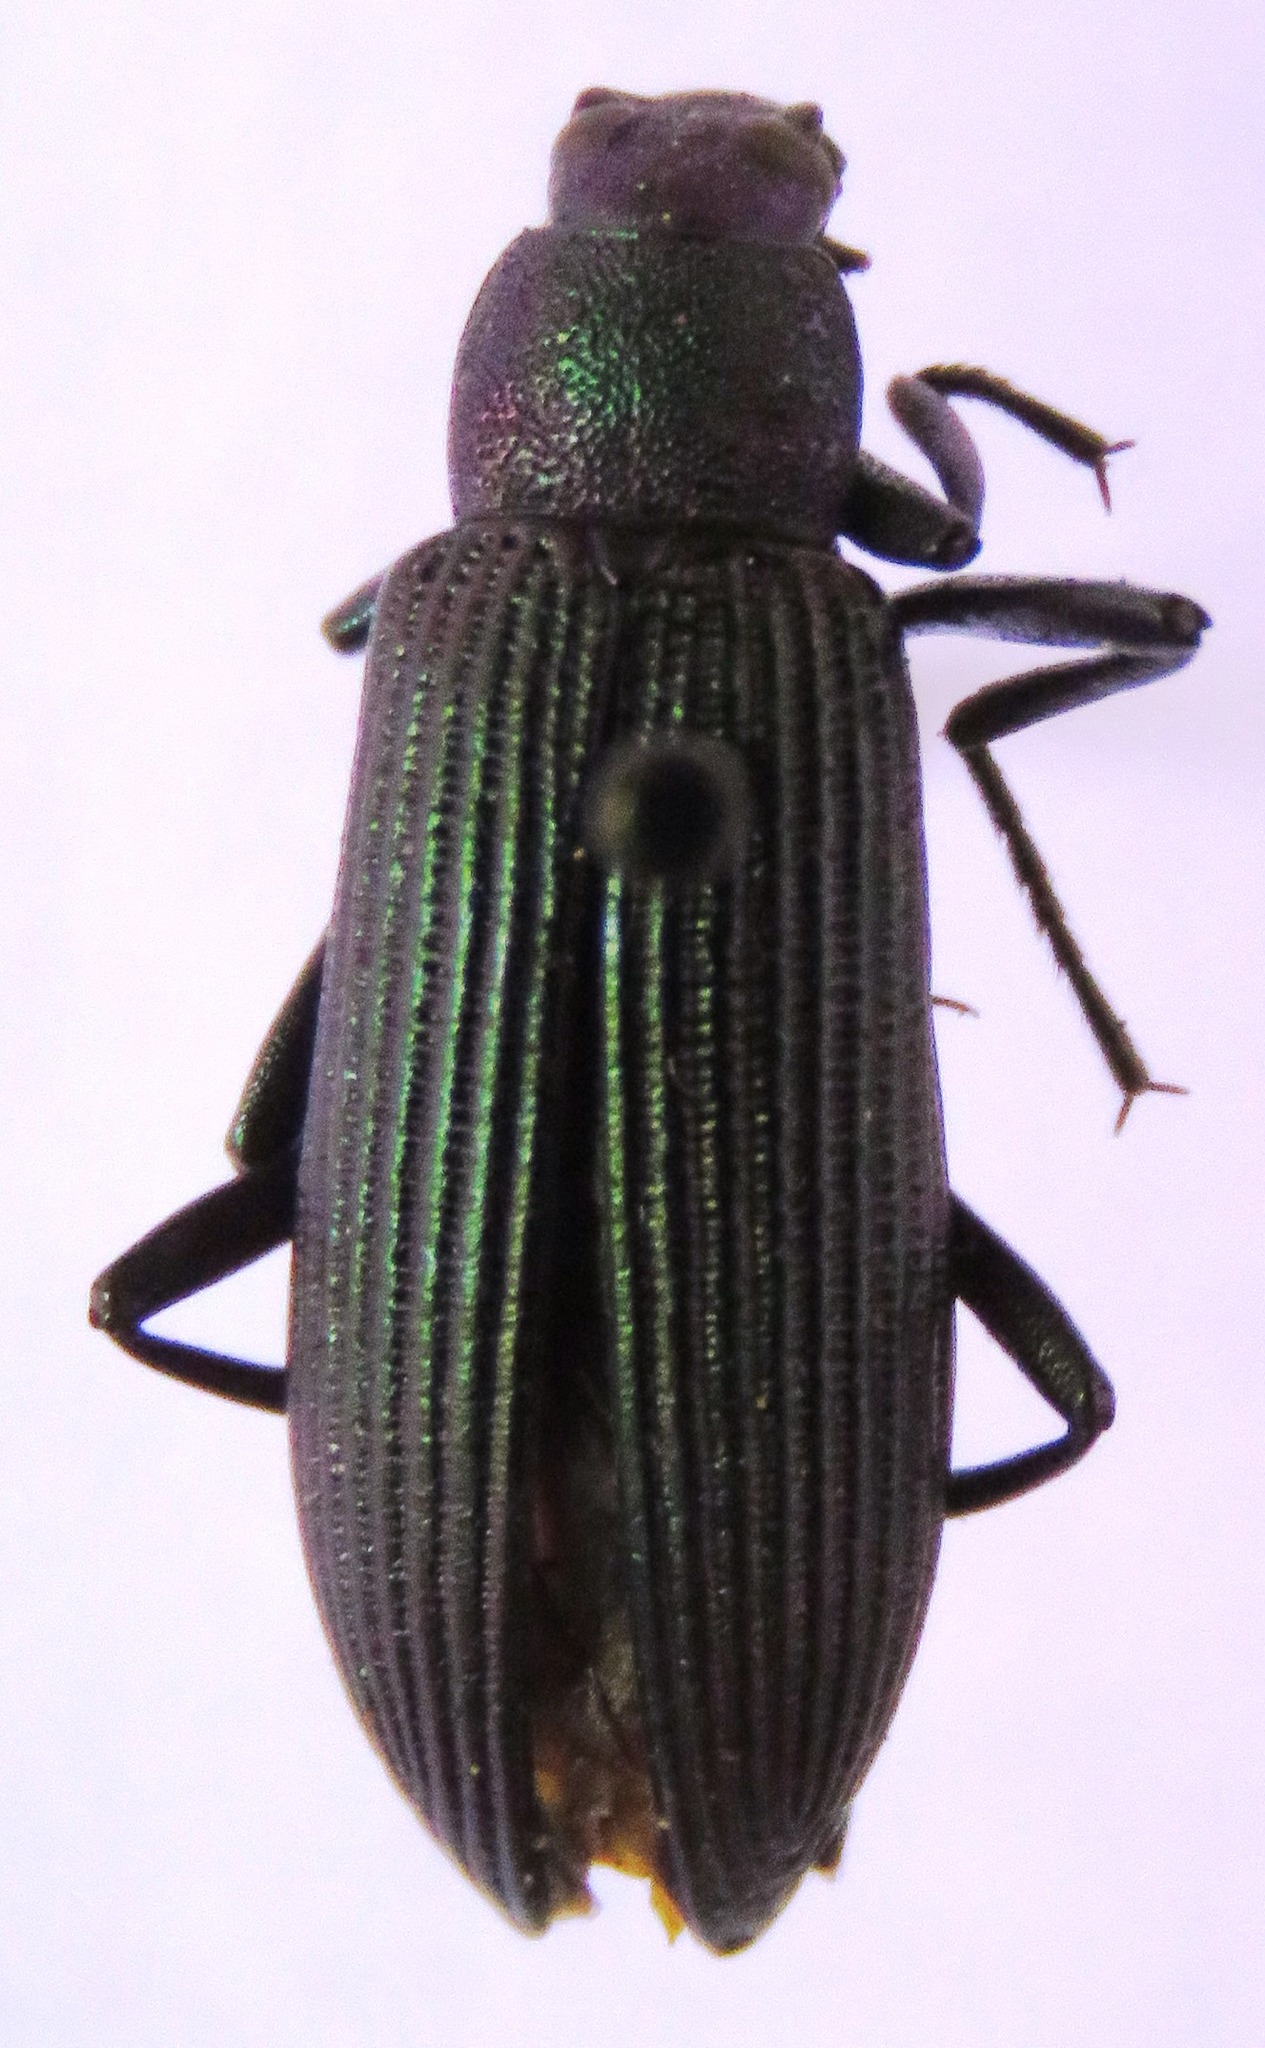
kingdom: Animalia
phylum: Arthropoda
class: Insecta
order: Coleoptera
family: Tenebrionidae
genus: Strongylium
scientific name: Strongylium
